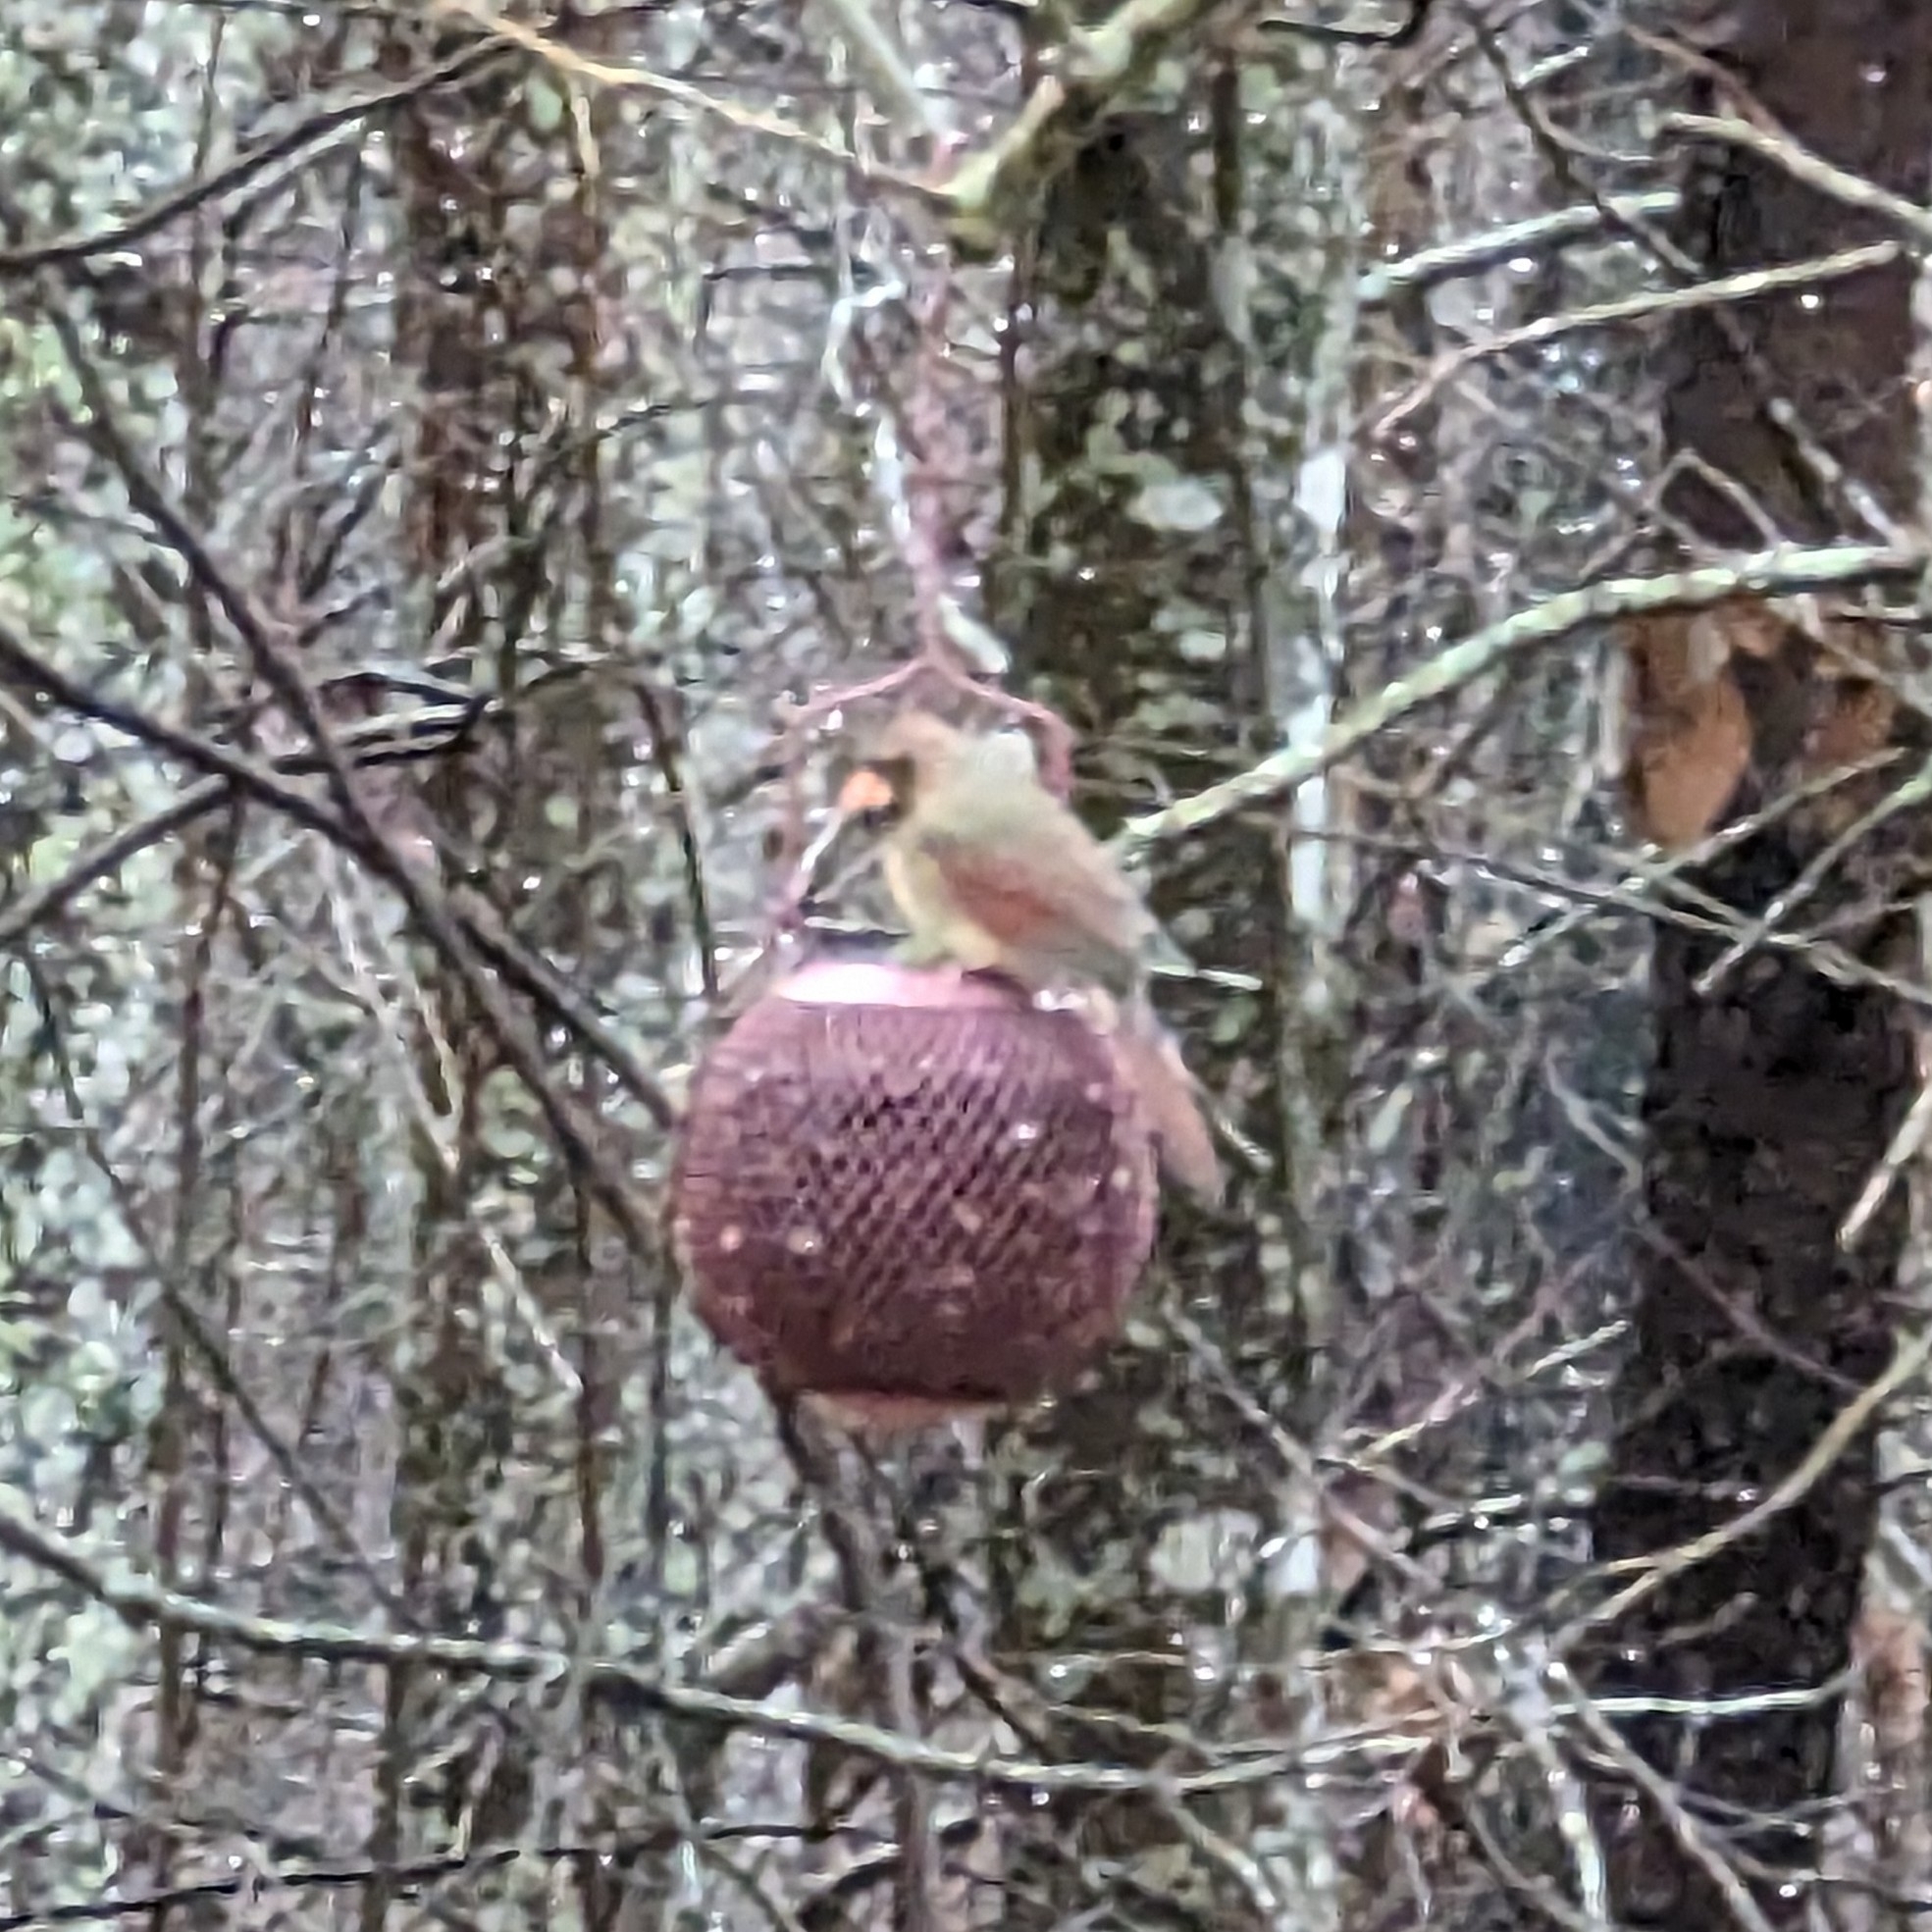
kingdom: Animalia
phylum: Chordata
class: Aves
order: Passeriformes
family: Cardinalidae
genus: Cardinalis
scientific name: Cardinalis cardinalis
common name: Northern cardinal
